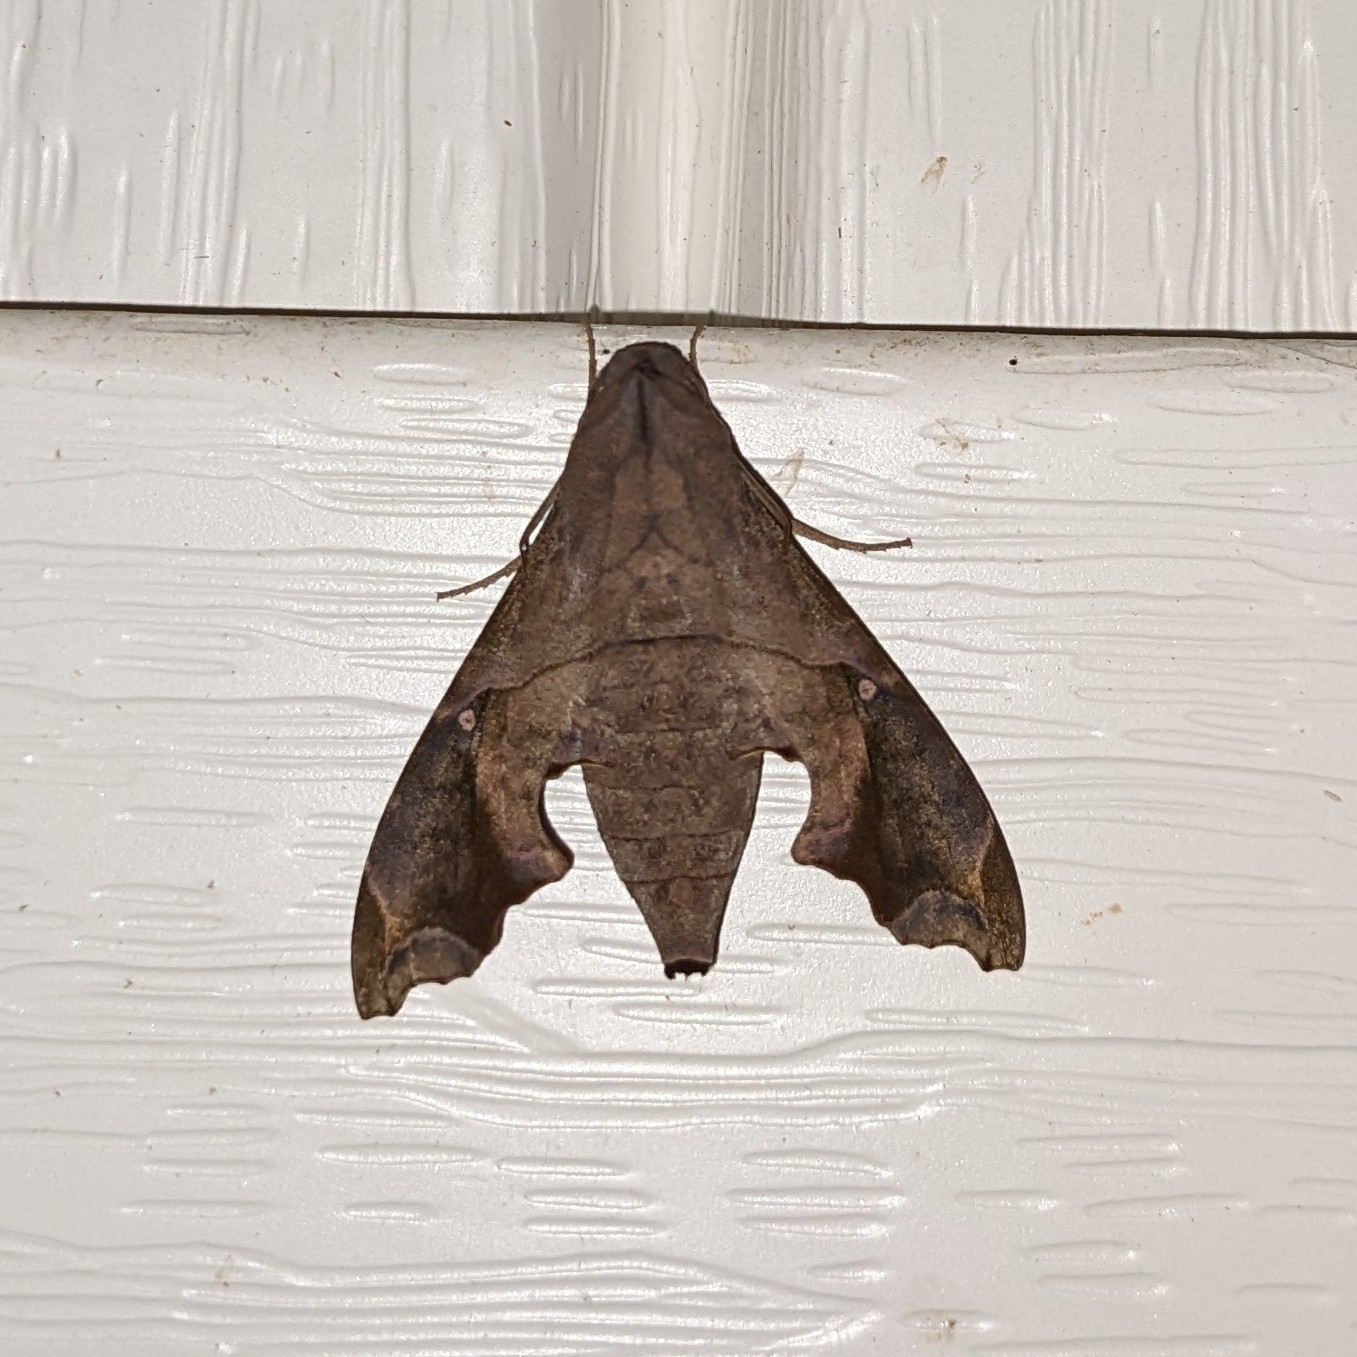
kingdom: Animalia
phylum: Arthropoda
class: Insecta
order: Lepidoptera
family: Sphingidae
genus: Enyo
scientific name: Enyo lugubris
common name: Mournful sphinx
